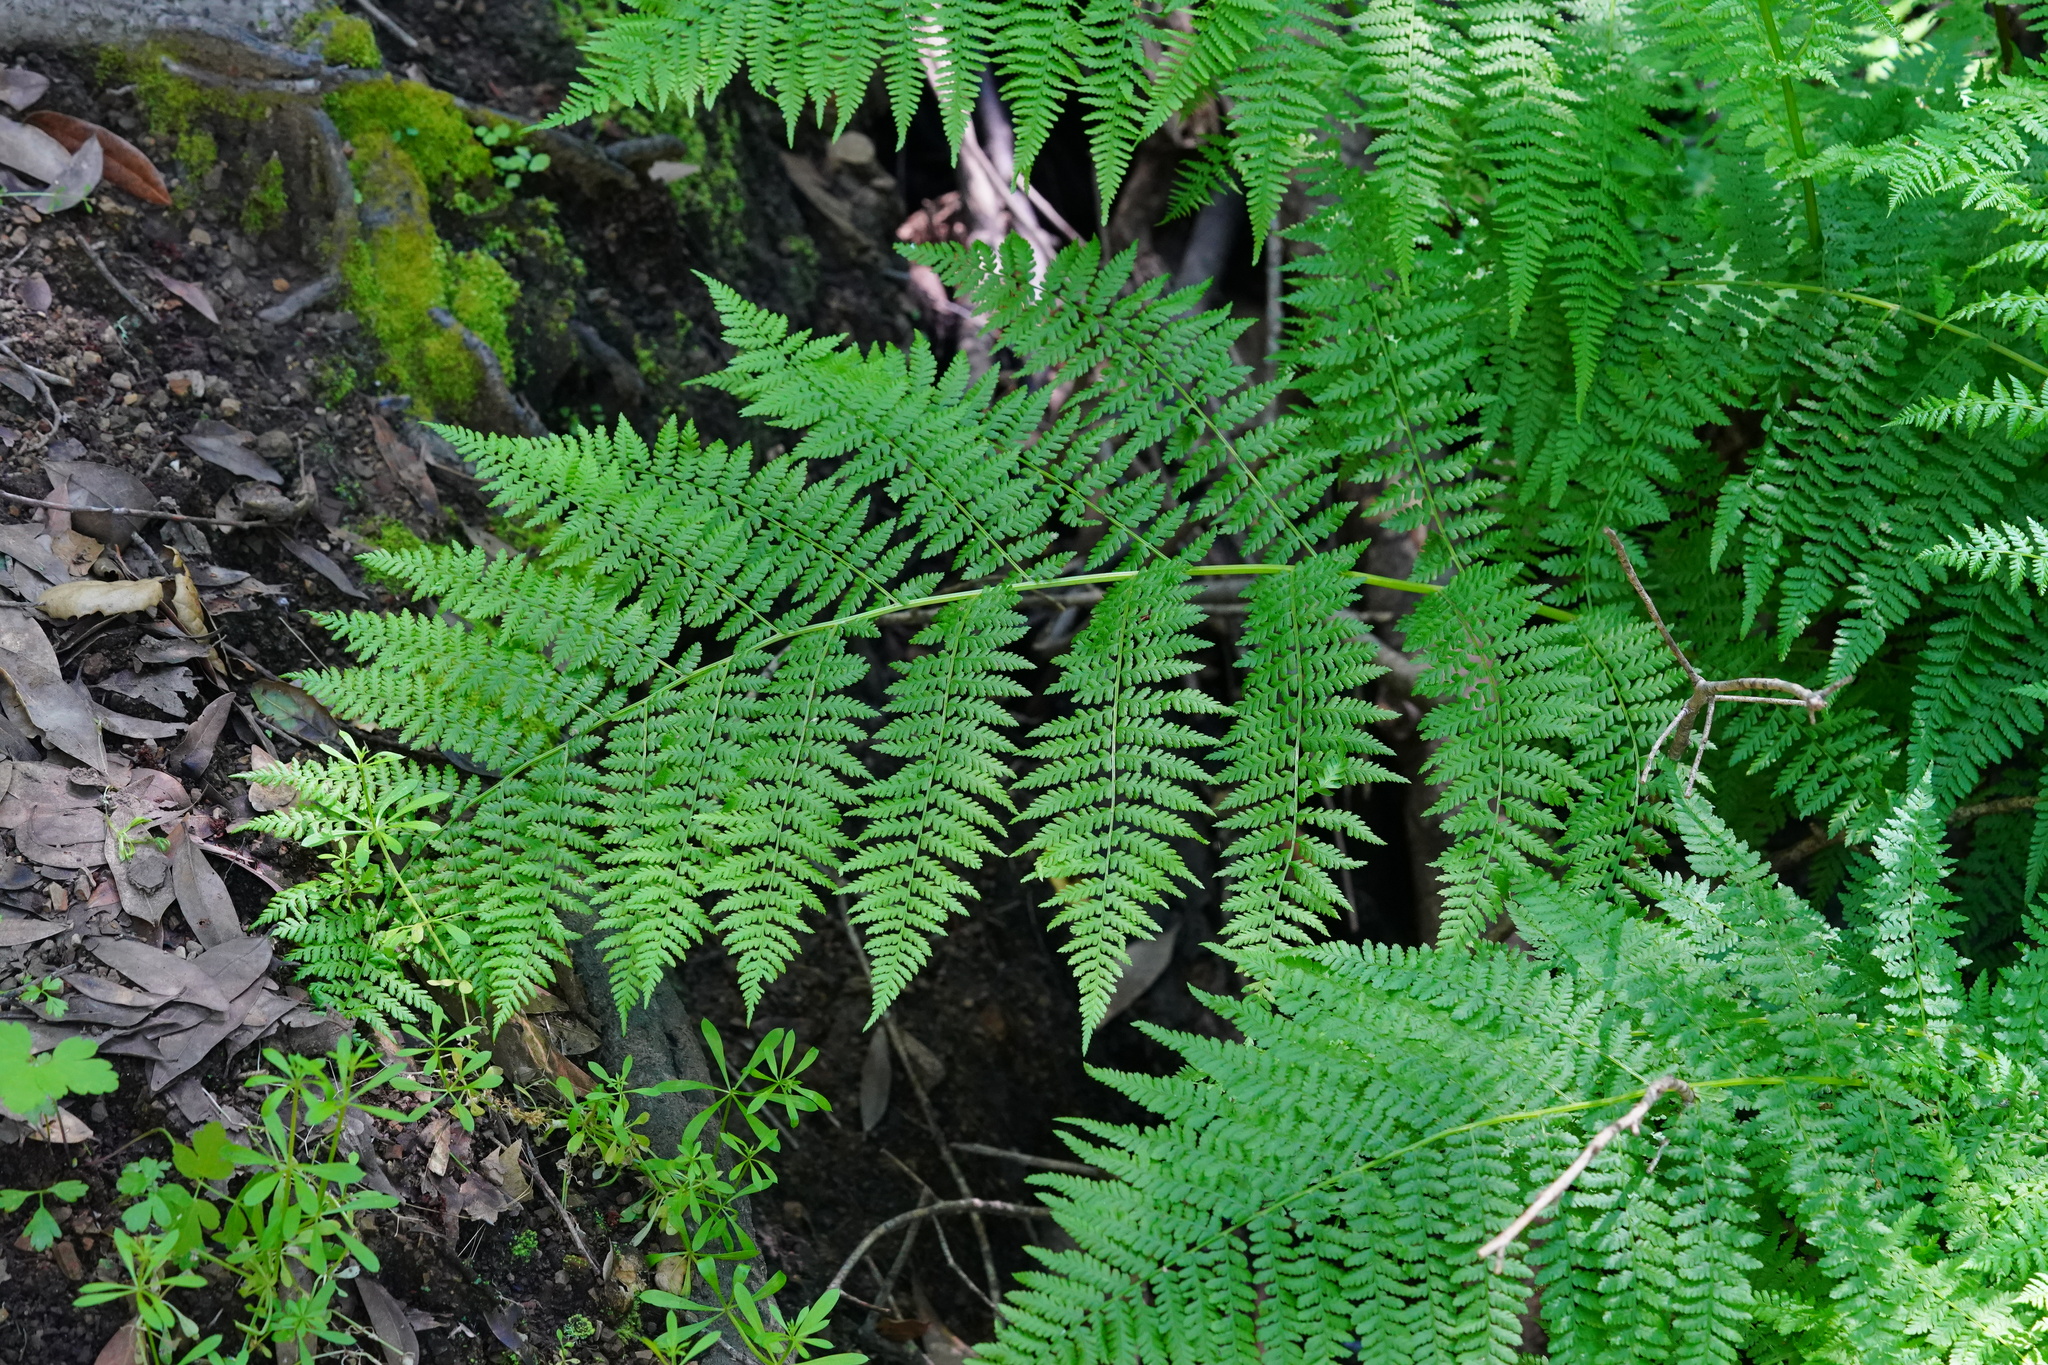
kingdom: Plantae
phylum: Tracheophyta
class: Polypodiopsida
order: Polypodiales
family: Athyriaceae
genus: Athyrium
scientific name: Athyrium cyclosorum
